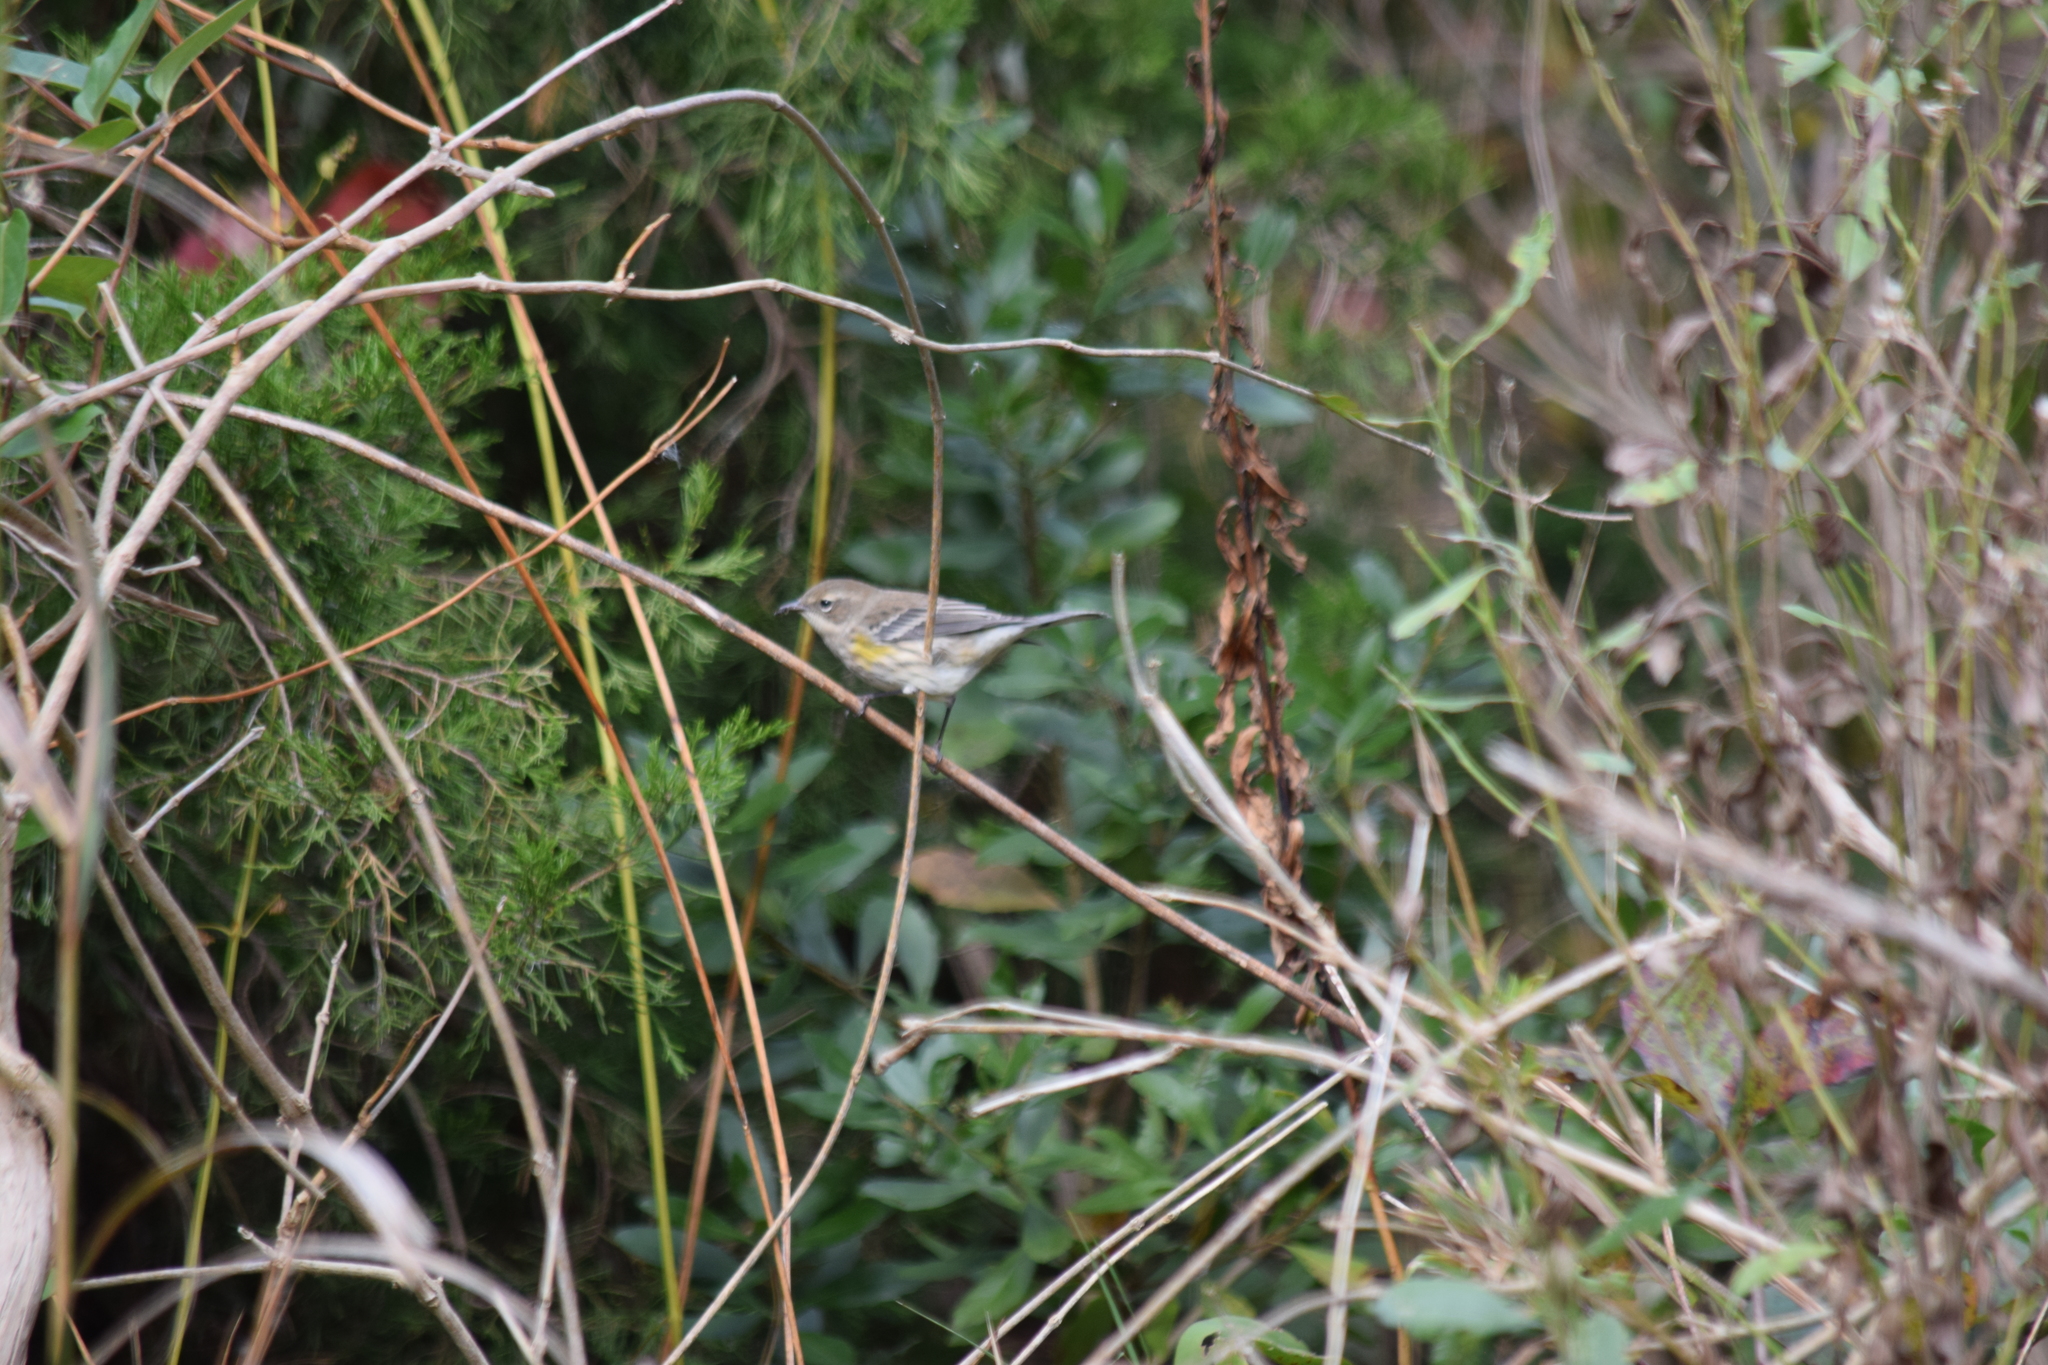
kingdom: Animalia
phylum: Chordata
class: Aves
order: Passeriformes
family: Parulidae
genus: Setophaga
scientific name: Setophaga coronata
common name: Myrtle warbler
